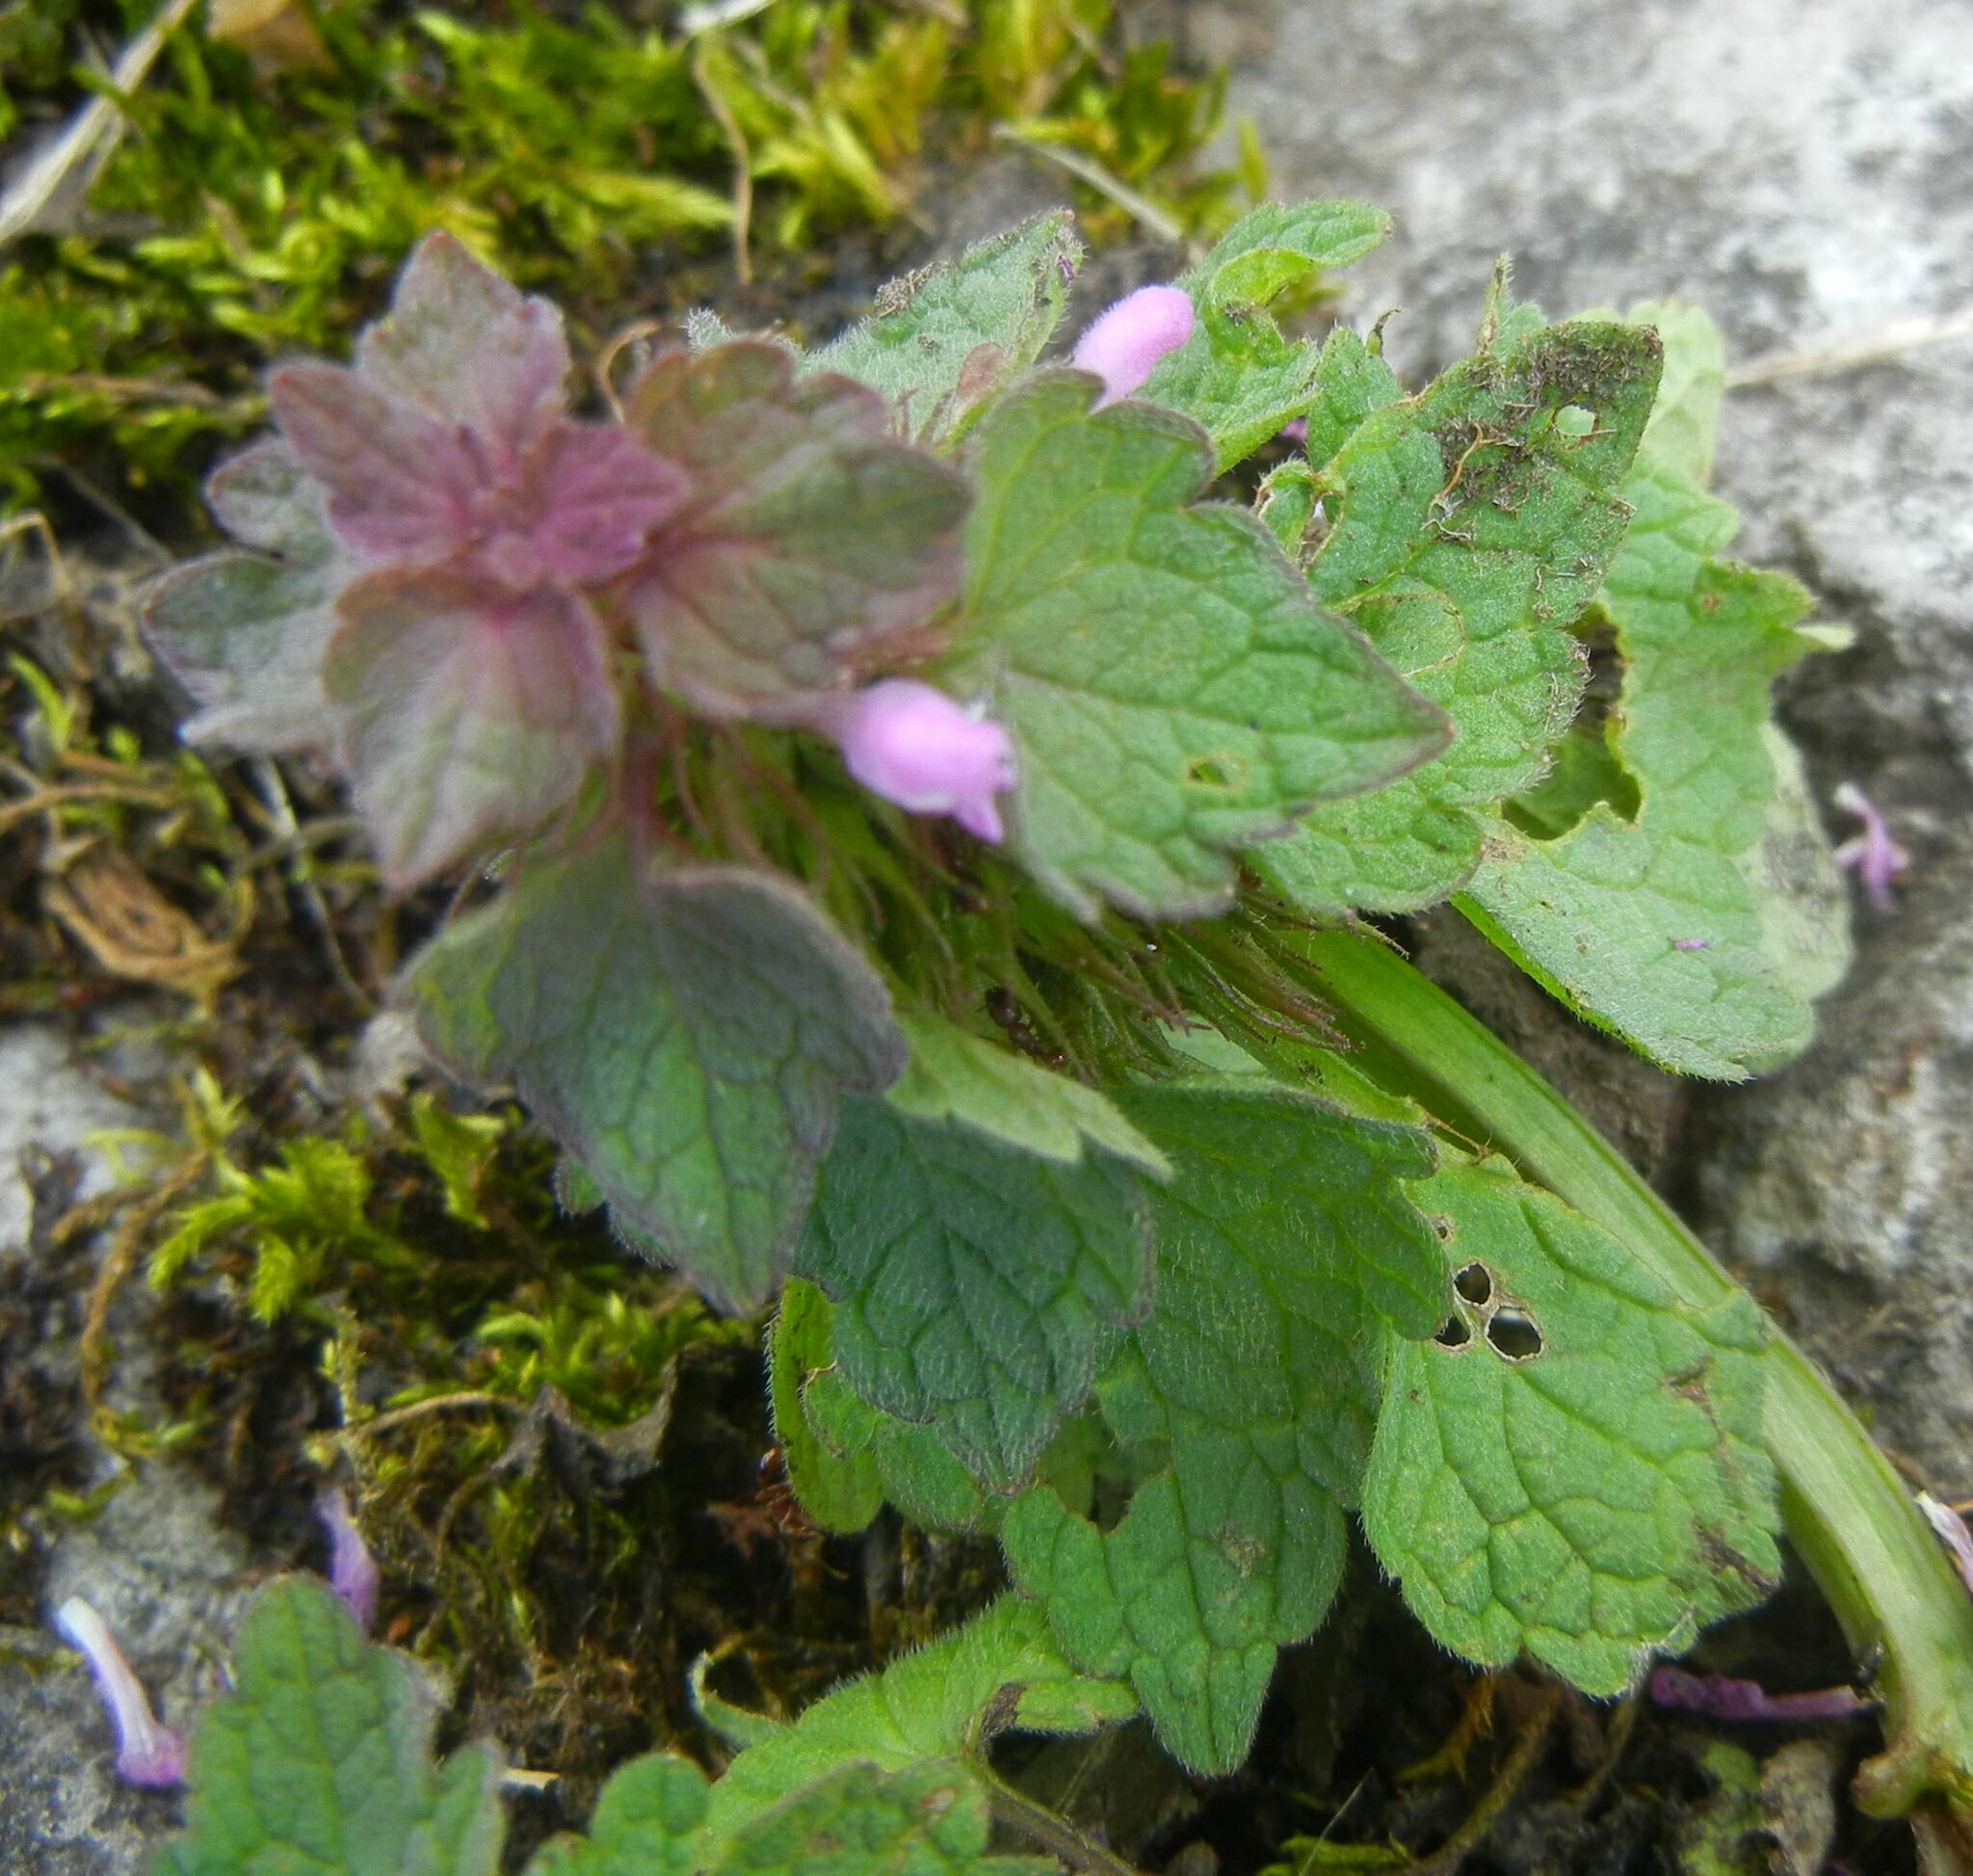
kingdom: Plantae
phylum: Tracheophyta
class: Magnoliopsida
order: Lamiales
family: Lamiaceae
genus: Lamium
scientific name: Lamium purpureum
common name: Red dead-nettle
